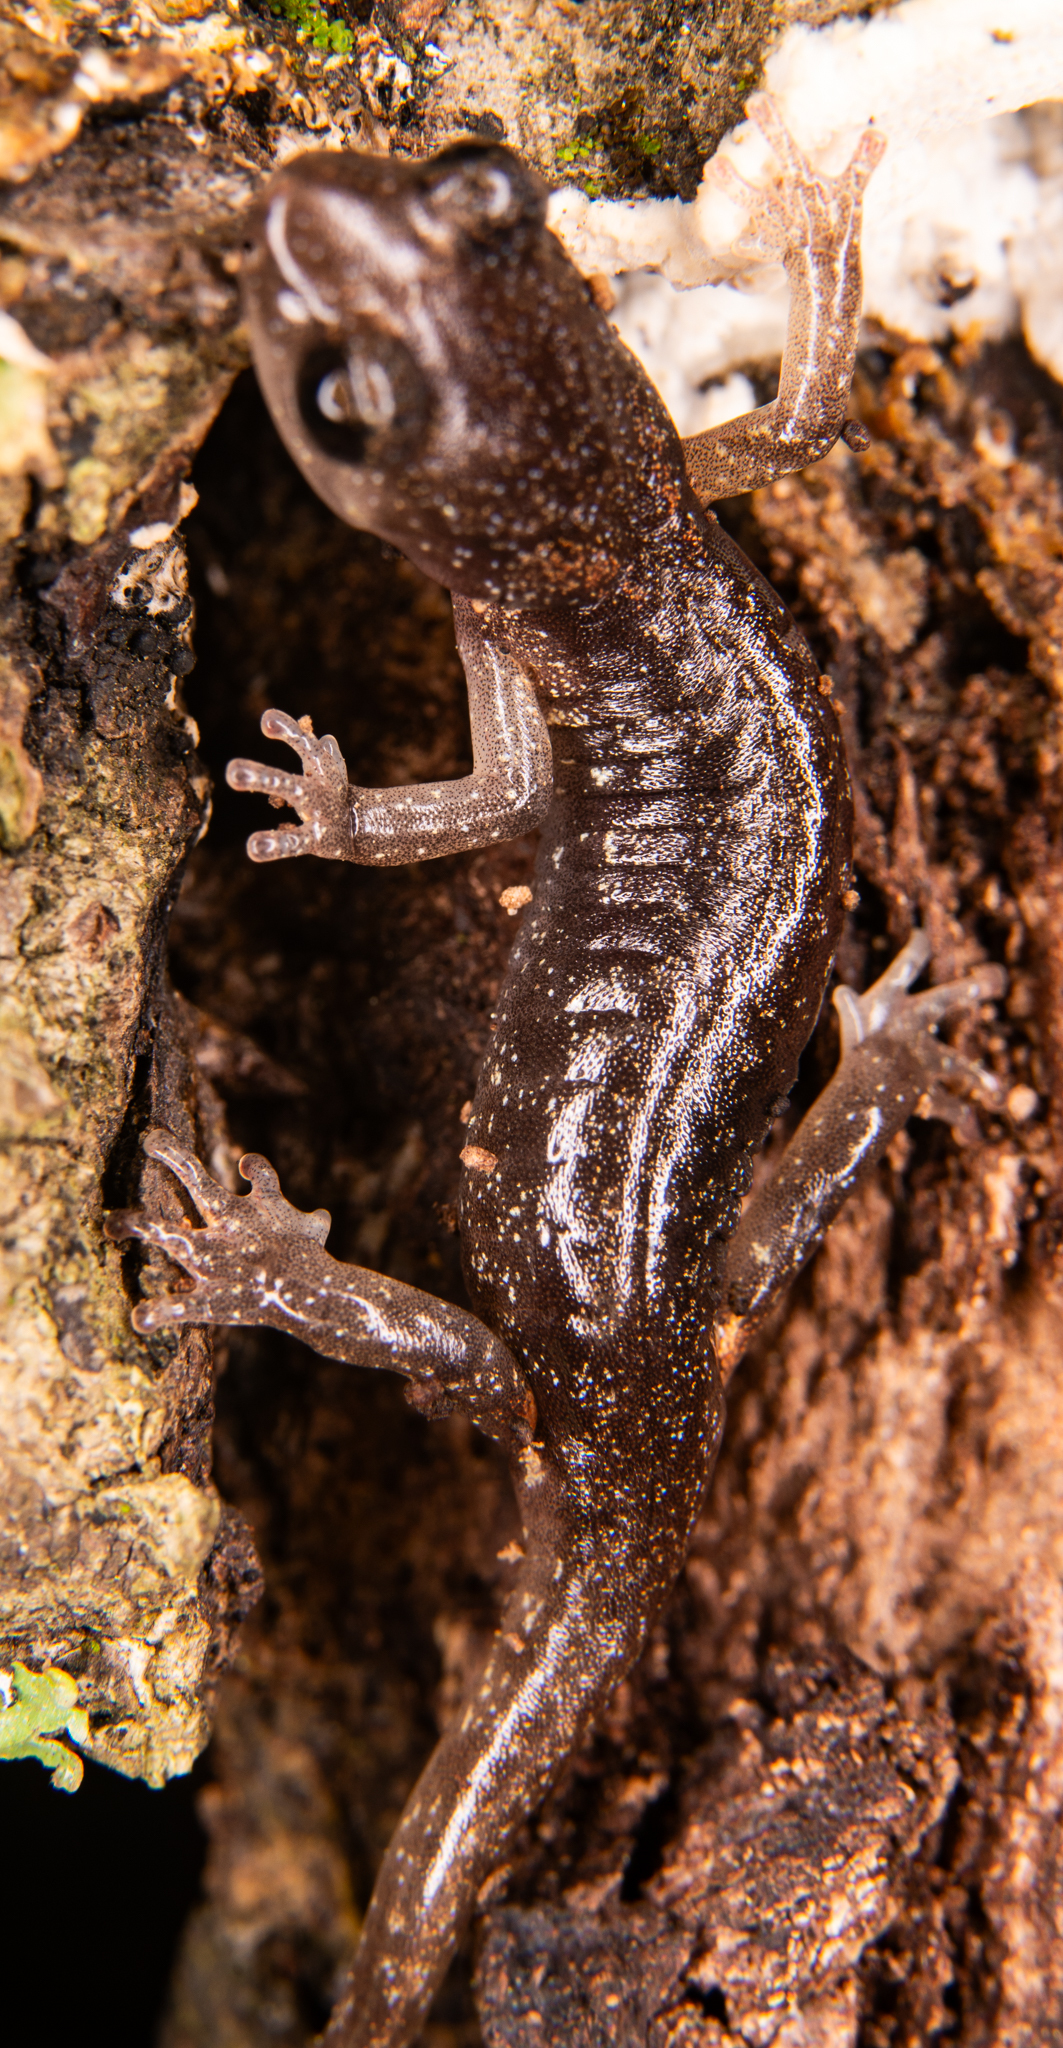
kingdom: Animalia
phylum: Chordata
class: Amphibia
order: Caudata
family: Plethodontidae
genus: Aneides
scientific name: Aneides lugubris
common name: Arboreal salamander
